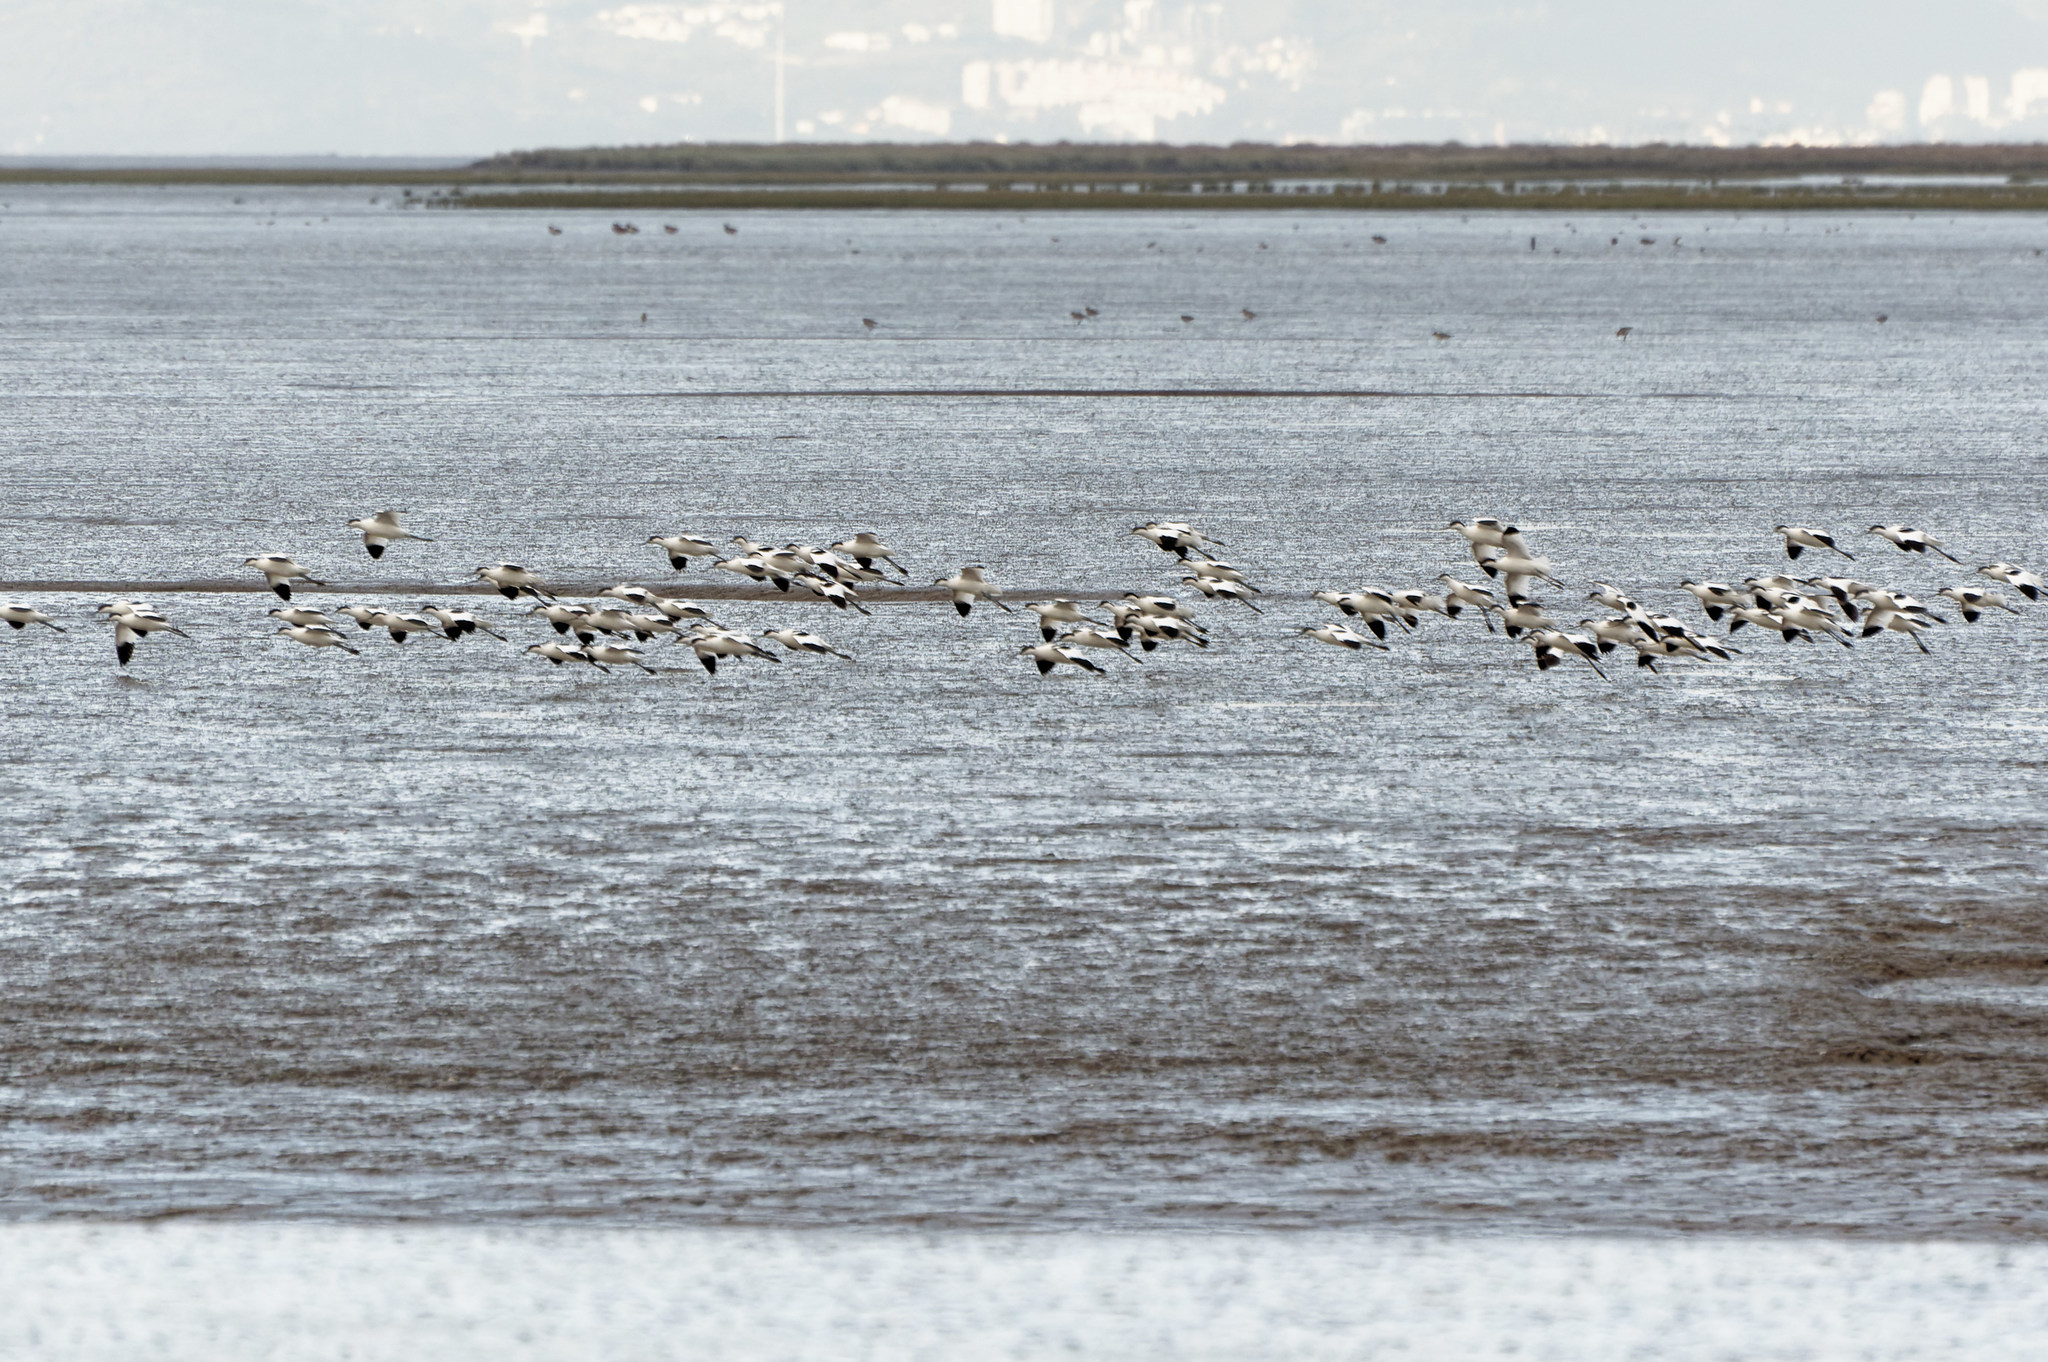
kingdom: Animalia
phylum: Chordata
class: Aves
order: Charadriiformes
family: Recurvirostridae
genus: Recurvirostra
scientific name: Recurvirostra avosetta
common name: Pied avocet
